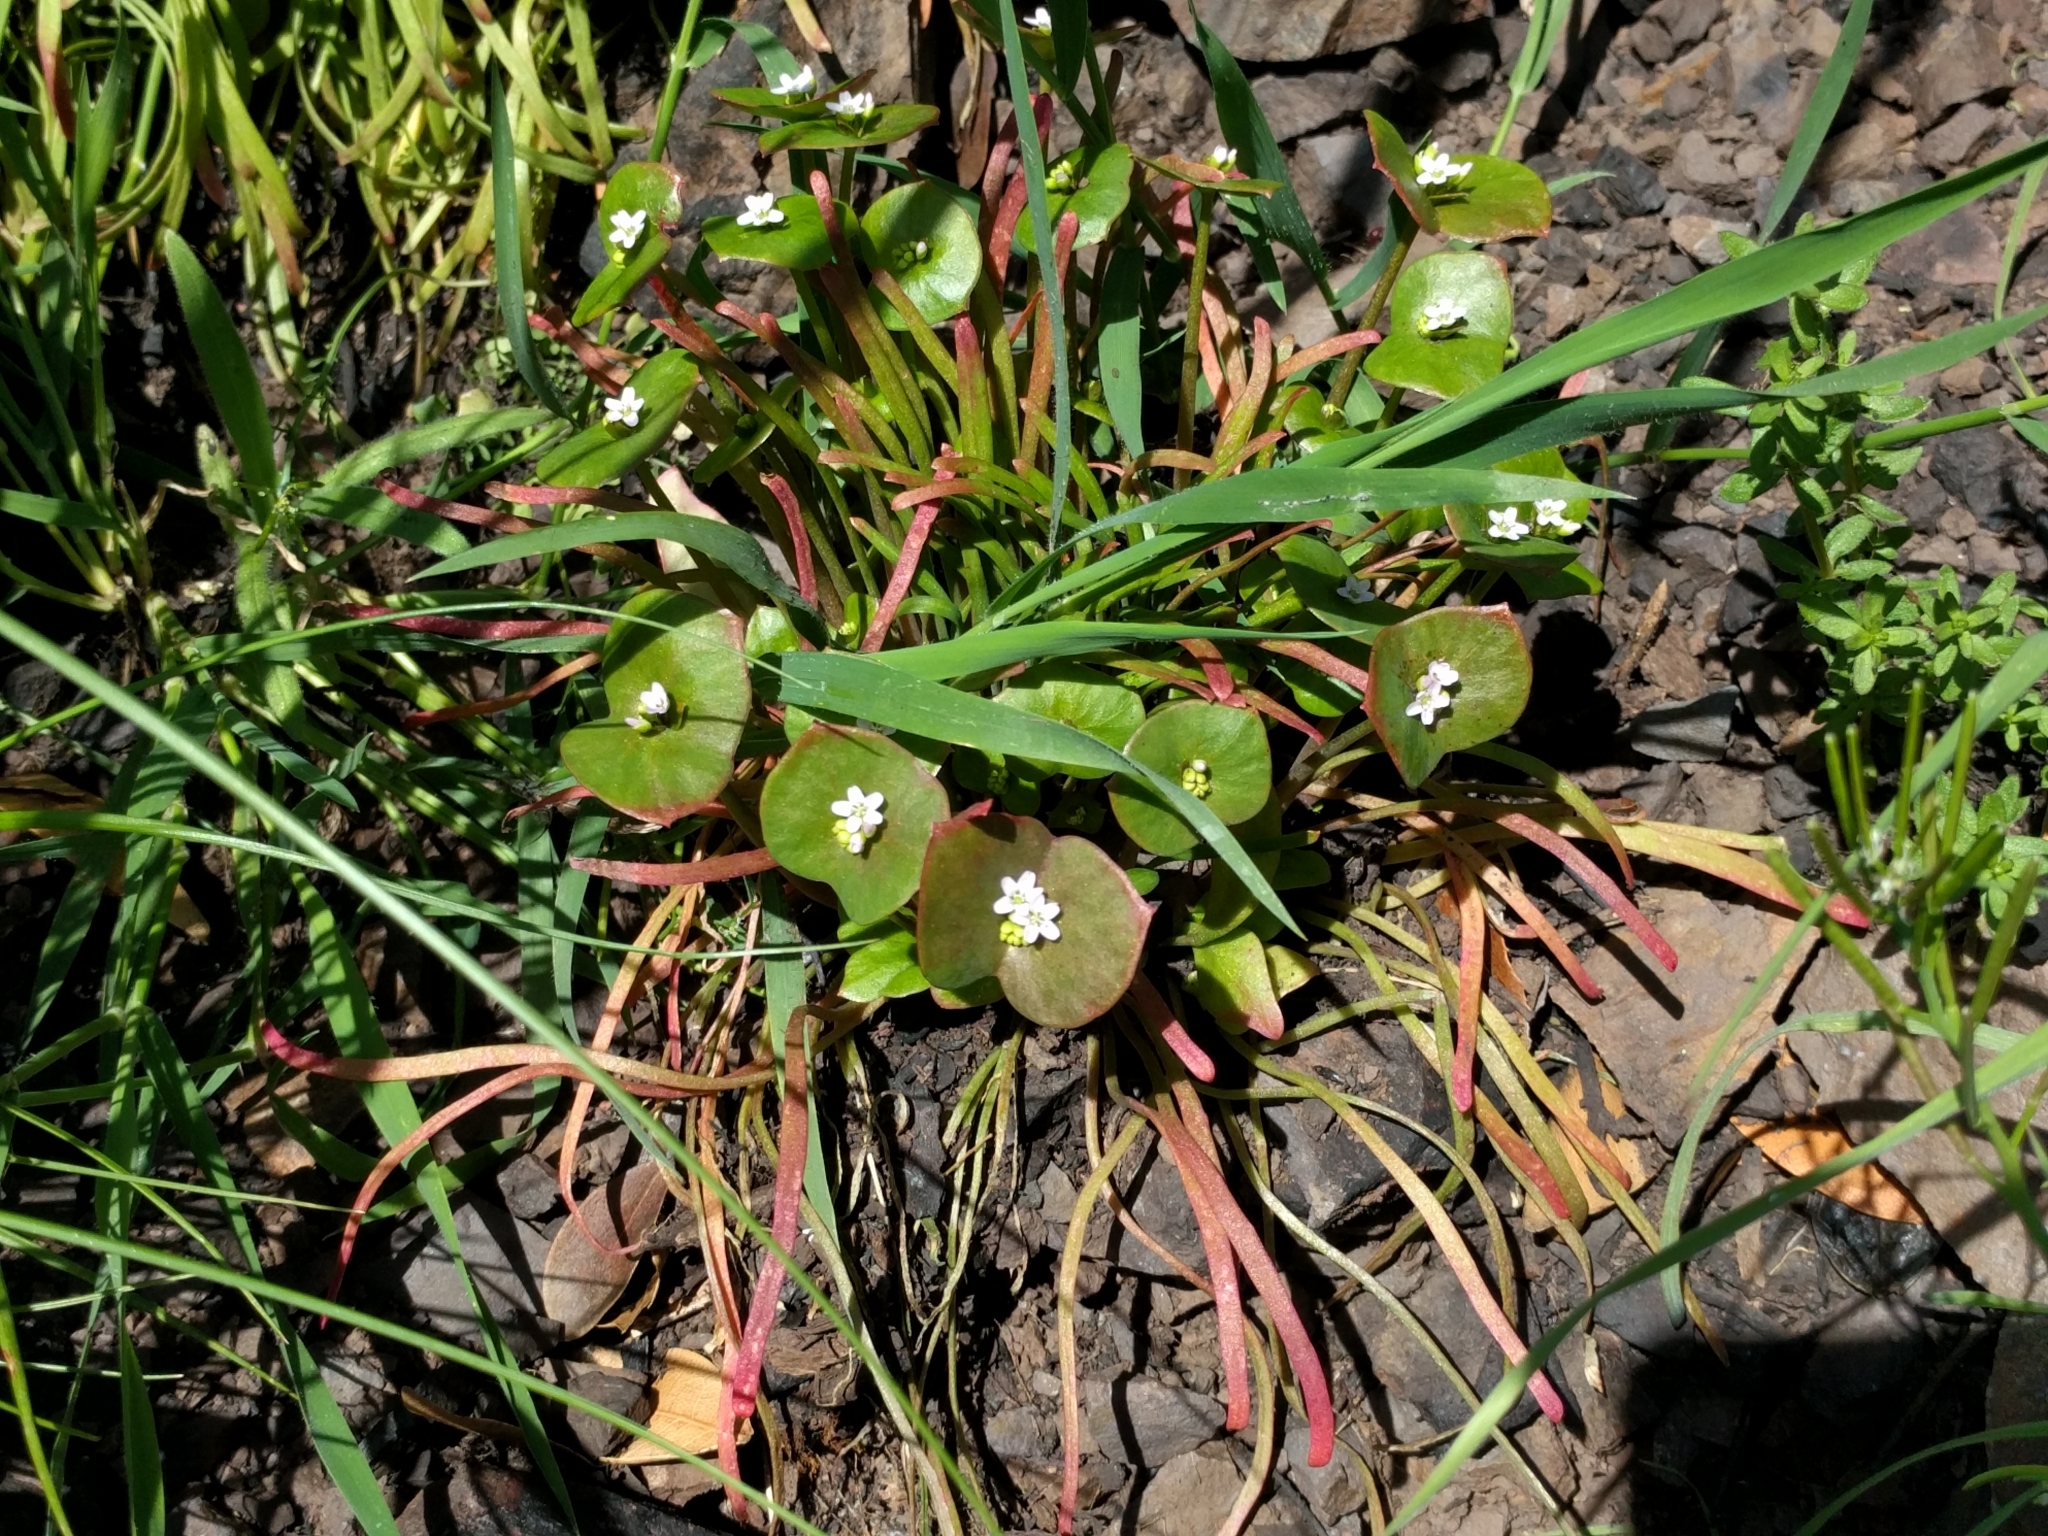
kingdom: Plantae
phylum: Tracheophyta
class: Magnoliopsida
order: Caryophyllales
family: Montiaceae
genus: Claytonia
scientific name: Claytonia parviflora
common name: Indian-lettuce
